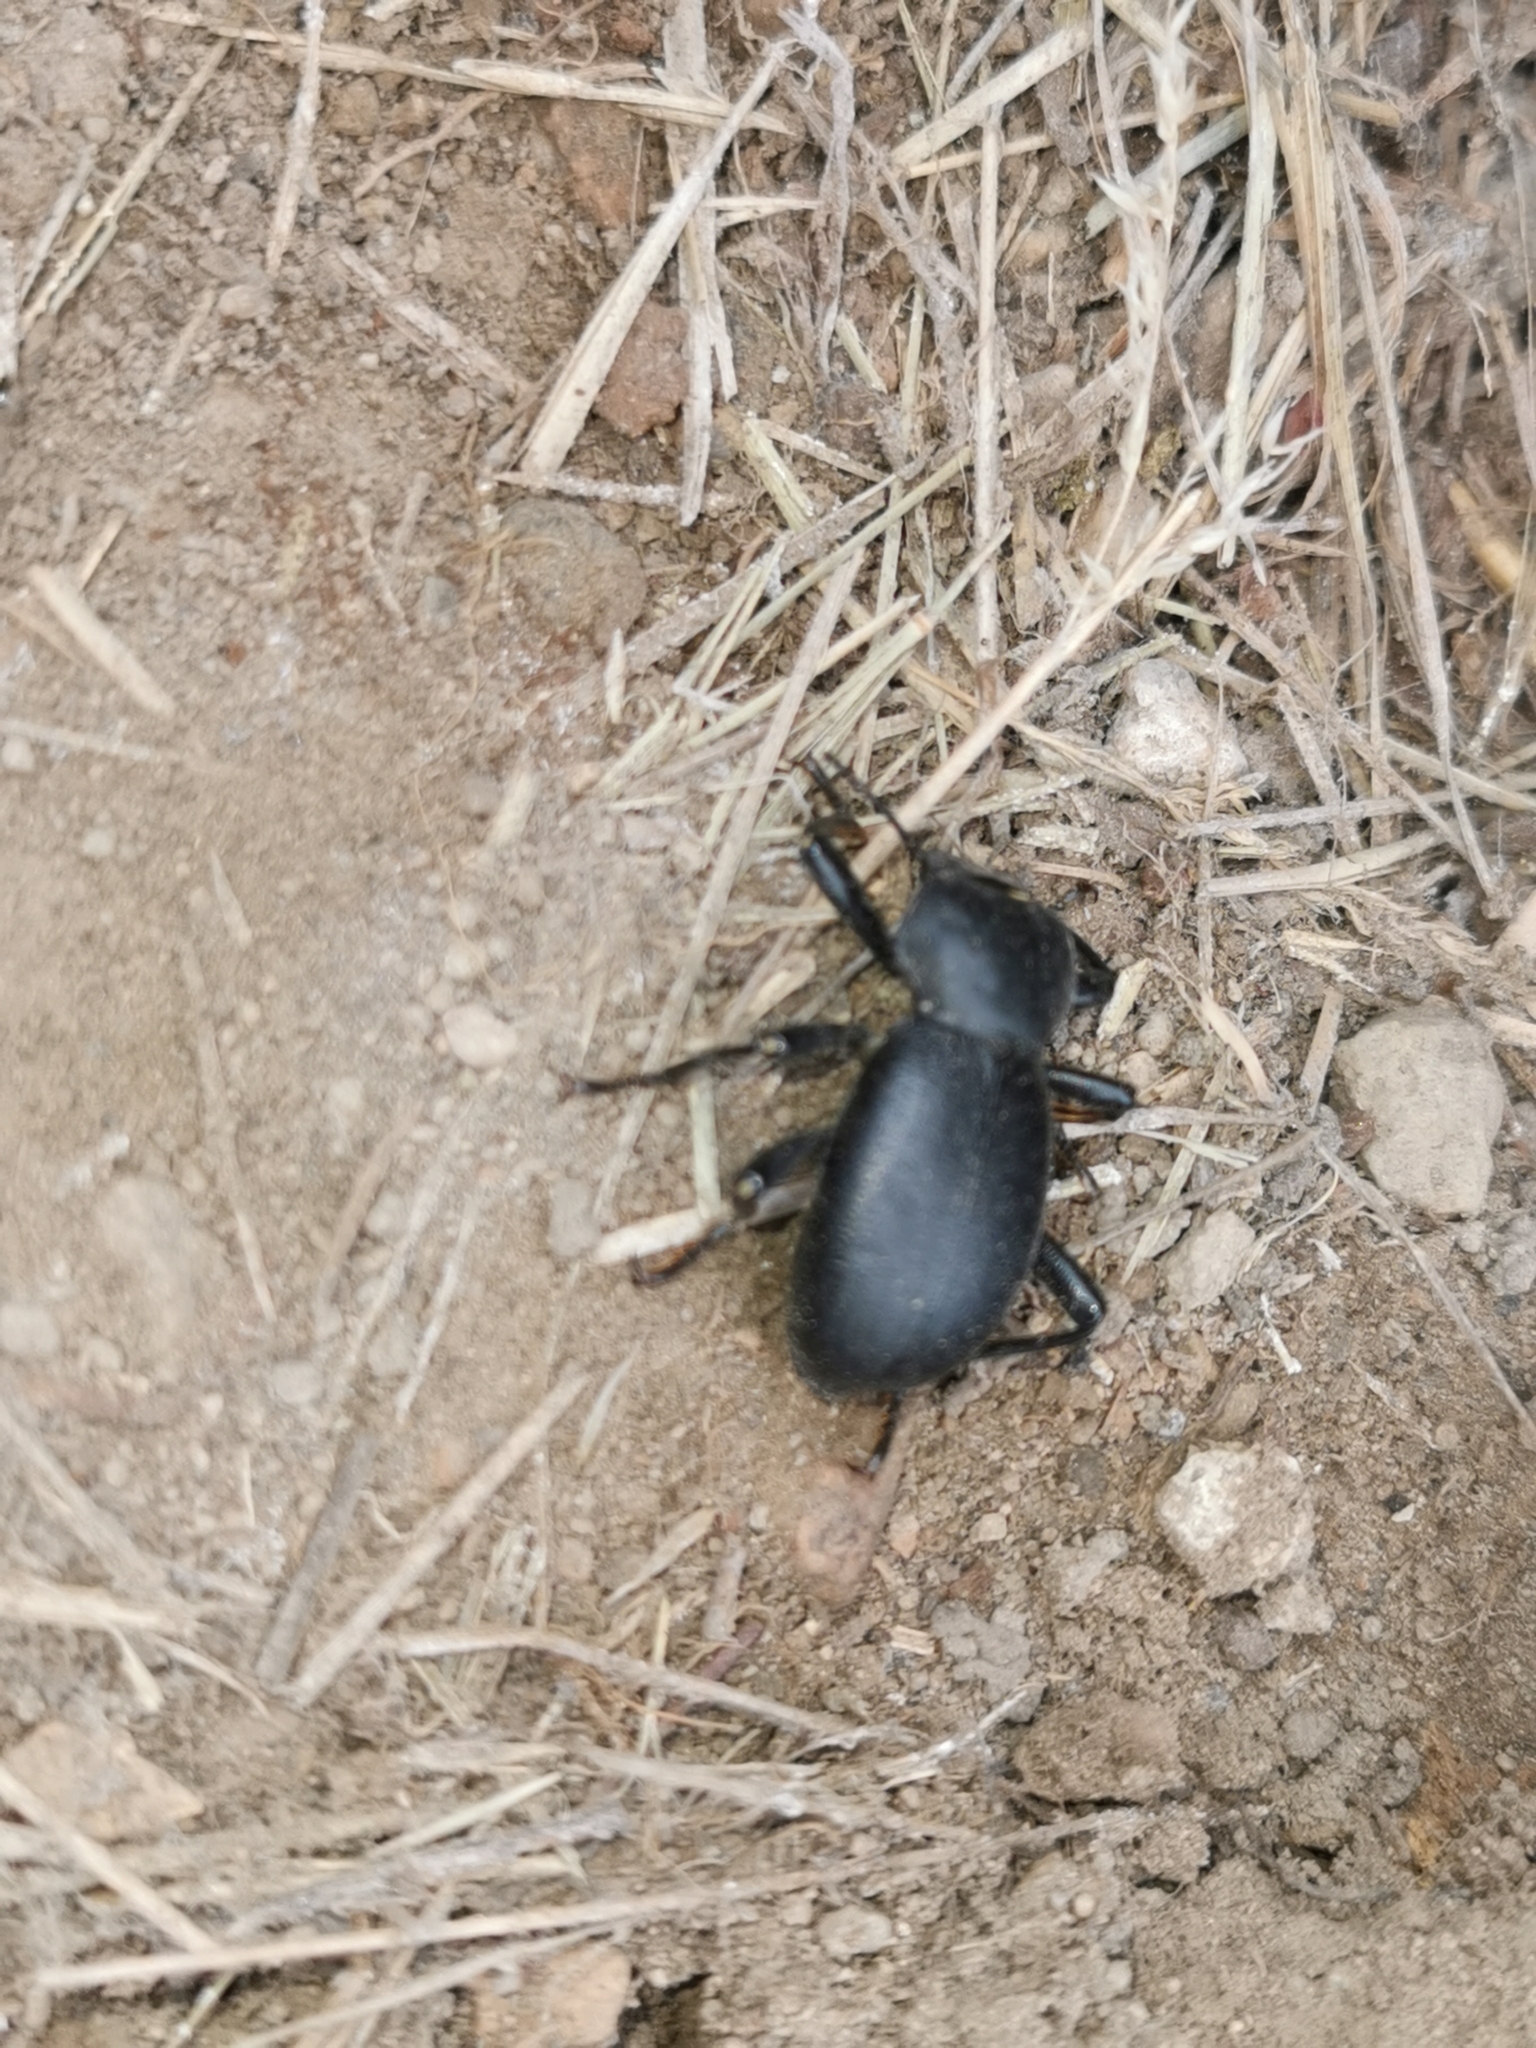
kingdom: Animalia
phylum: Arthropoda
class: Insecta
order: Coleoptera
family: Tenebrionidae
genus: Coelocnemis
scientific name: Coelocnemis dilaticollis
